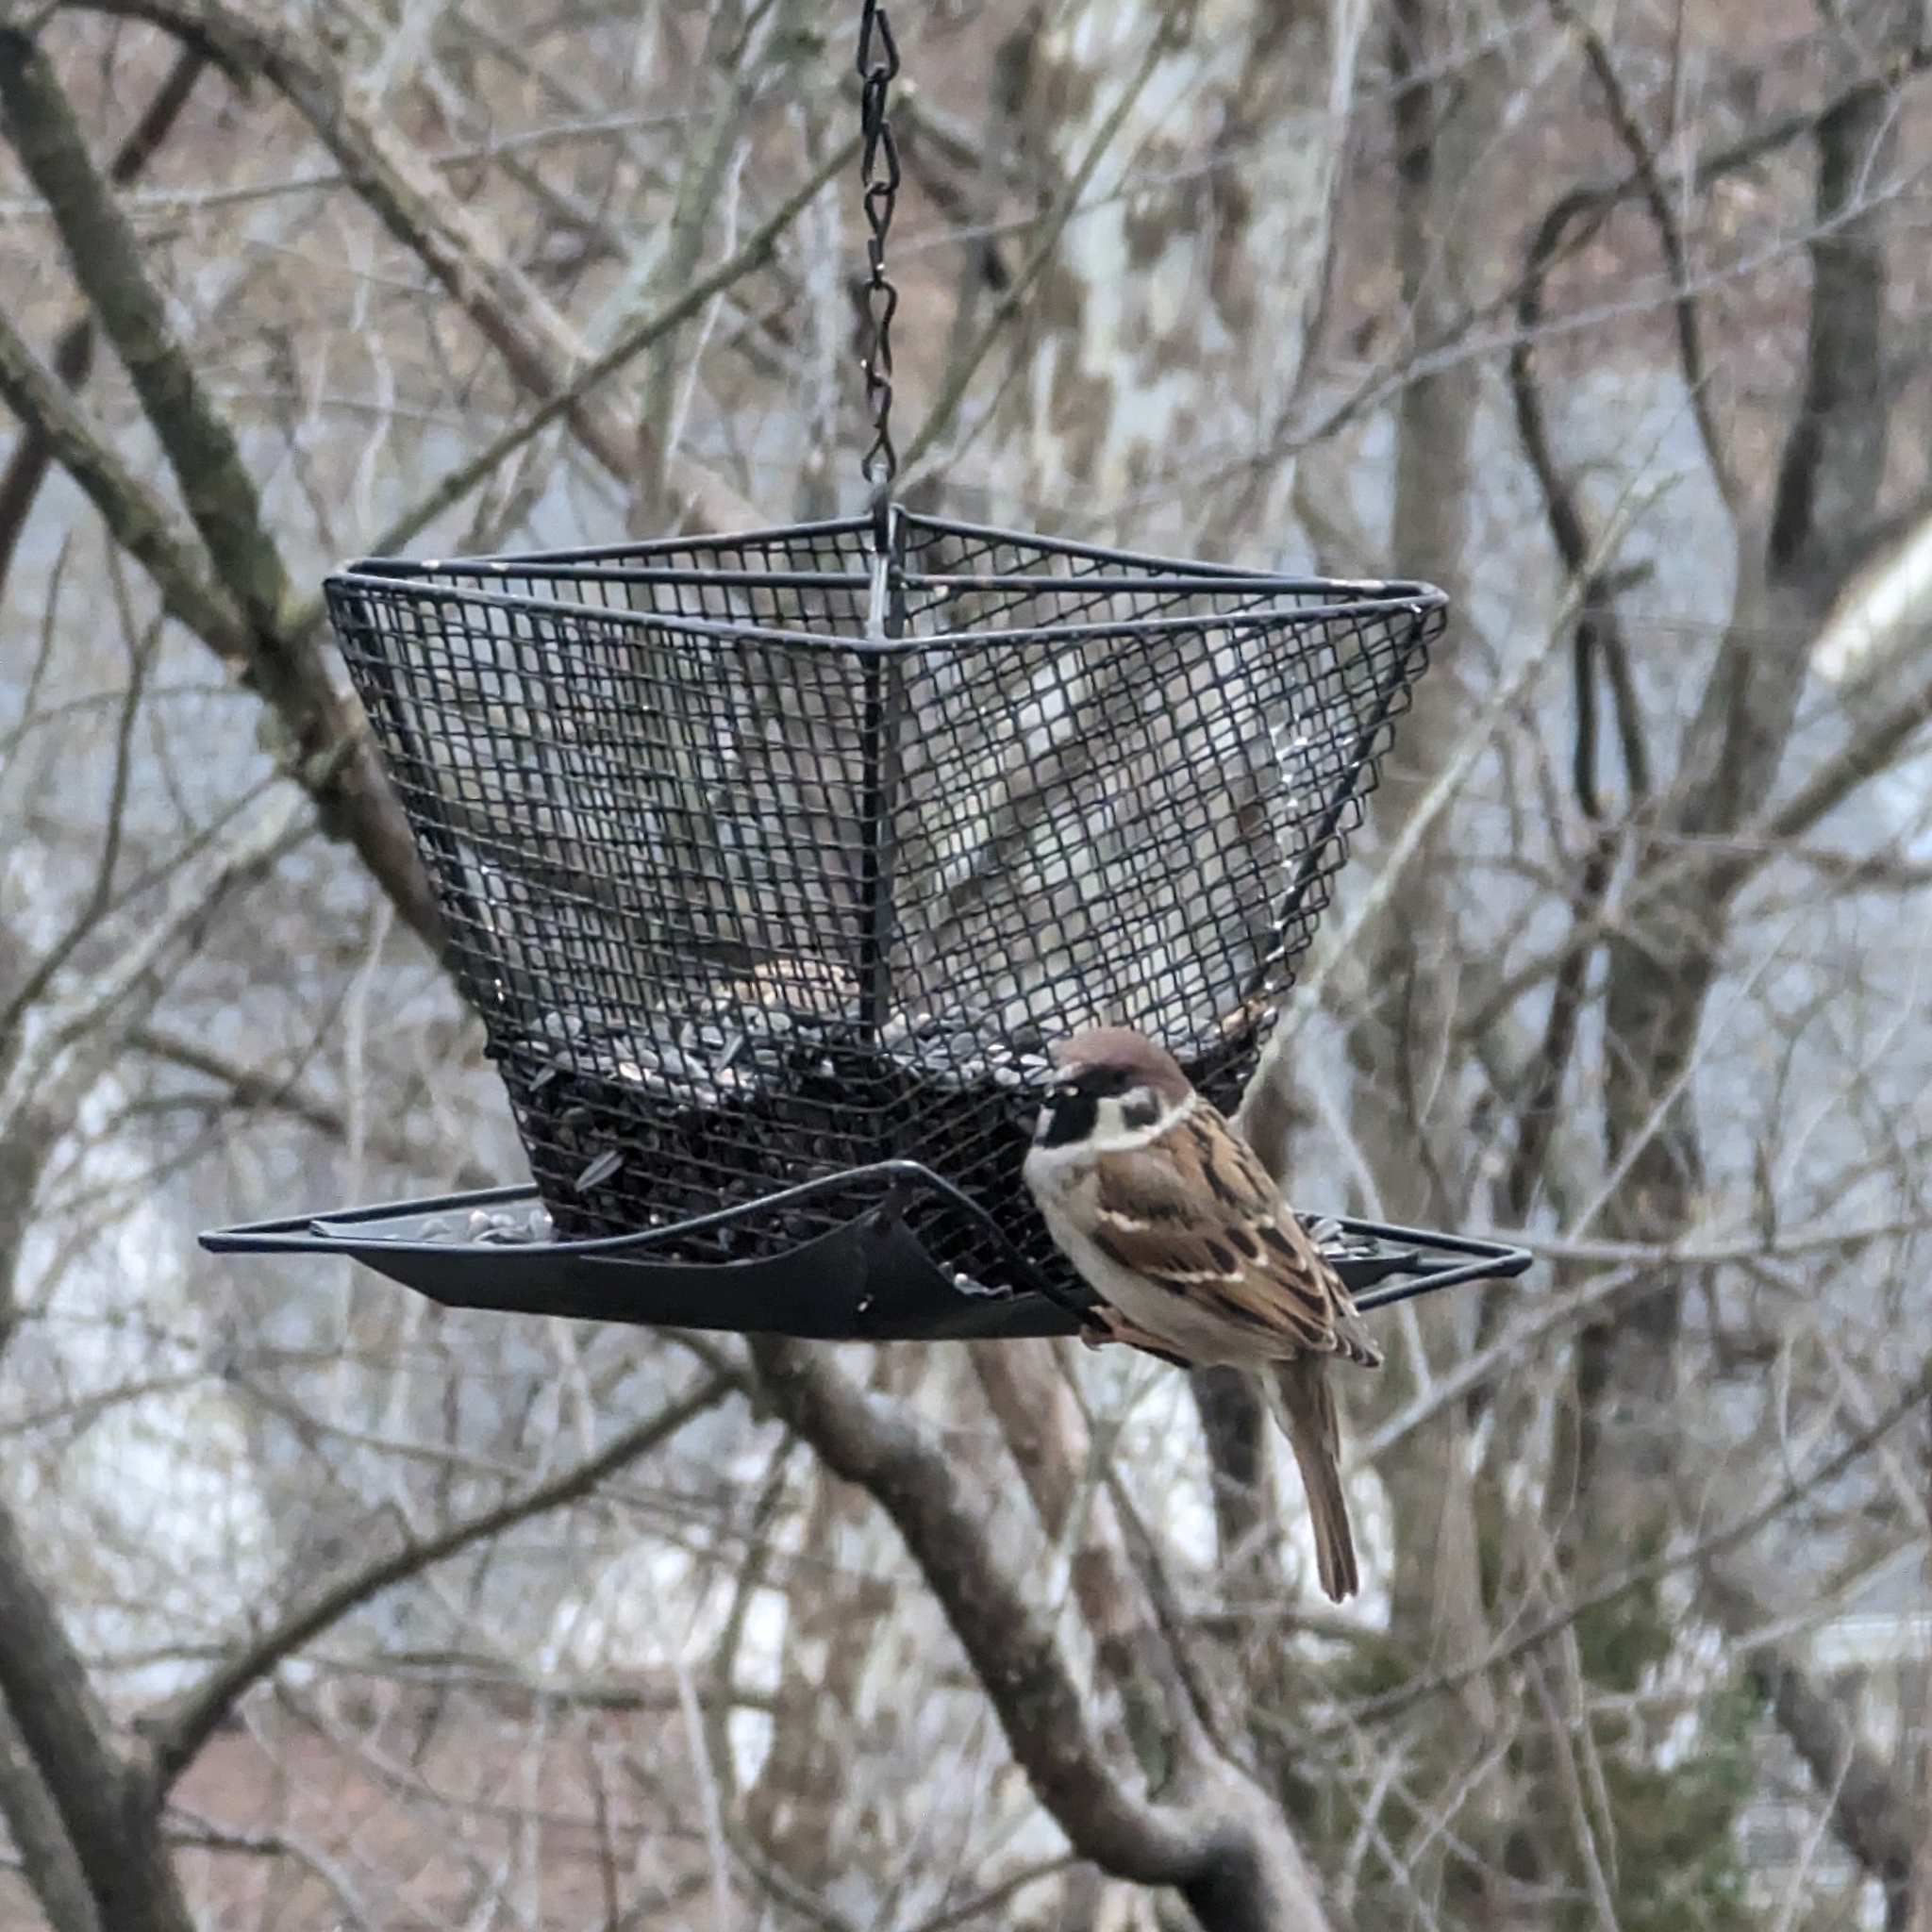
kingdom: Animalia
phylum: Chordata
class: Aves
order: Passeriformes
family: Passeridae
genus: Passer
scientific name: Passer montanus
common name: Eurasian tree sparrow
